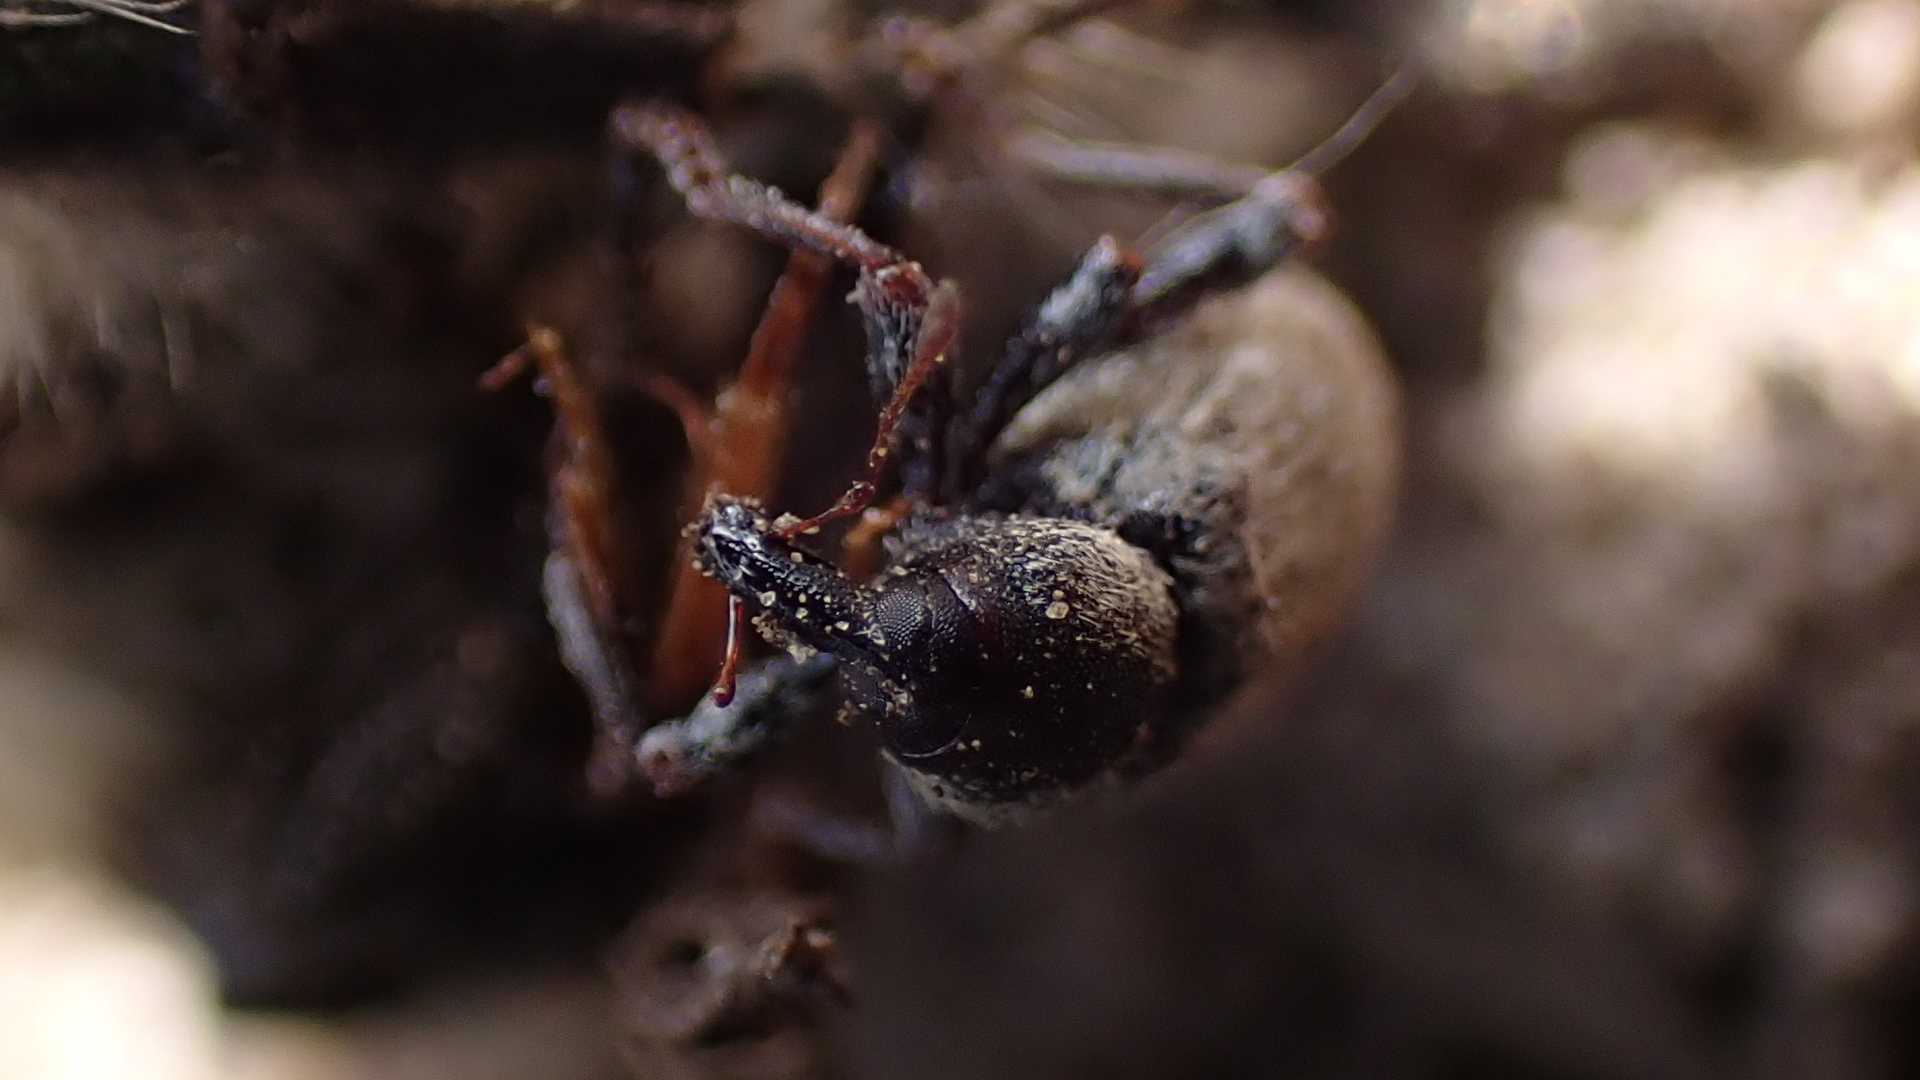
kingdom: Animalia
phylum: Arthropoda
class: Insecta
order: Coleoptera
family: Curculionidae
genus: Hypera
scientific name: Hypera
